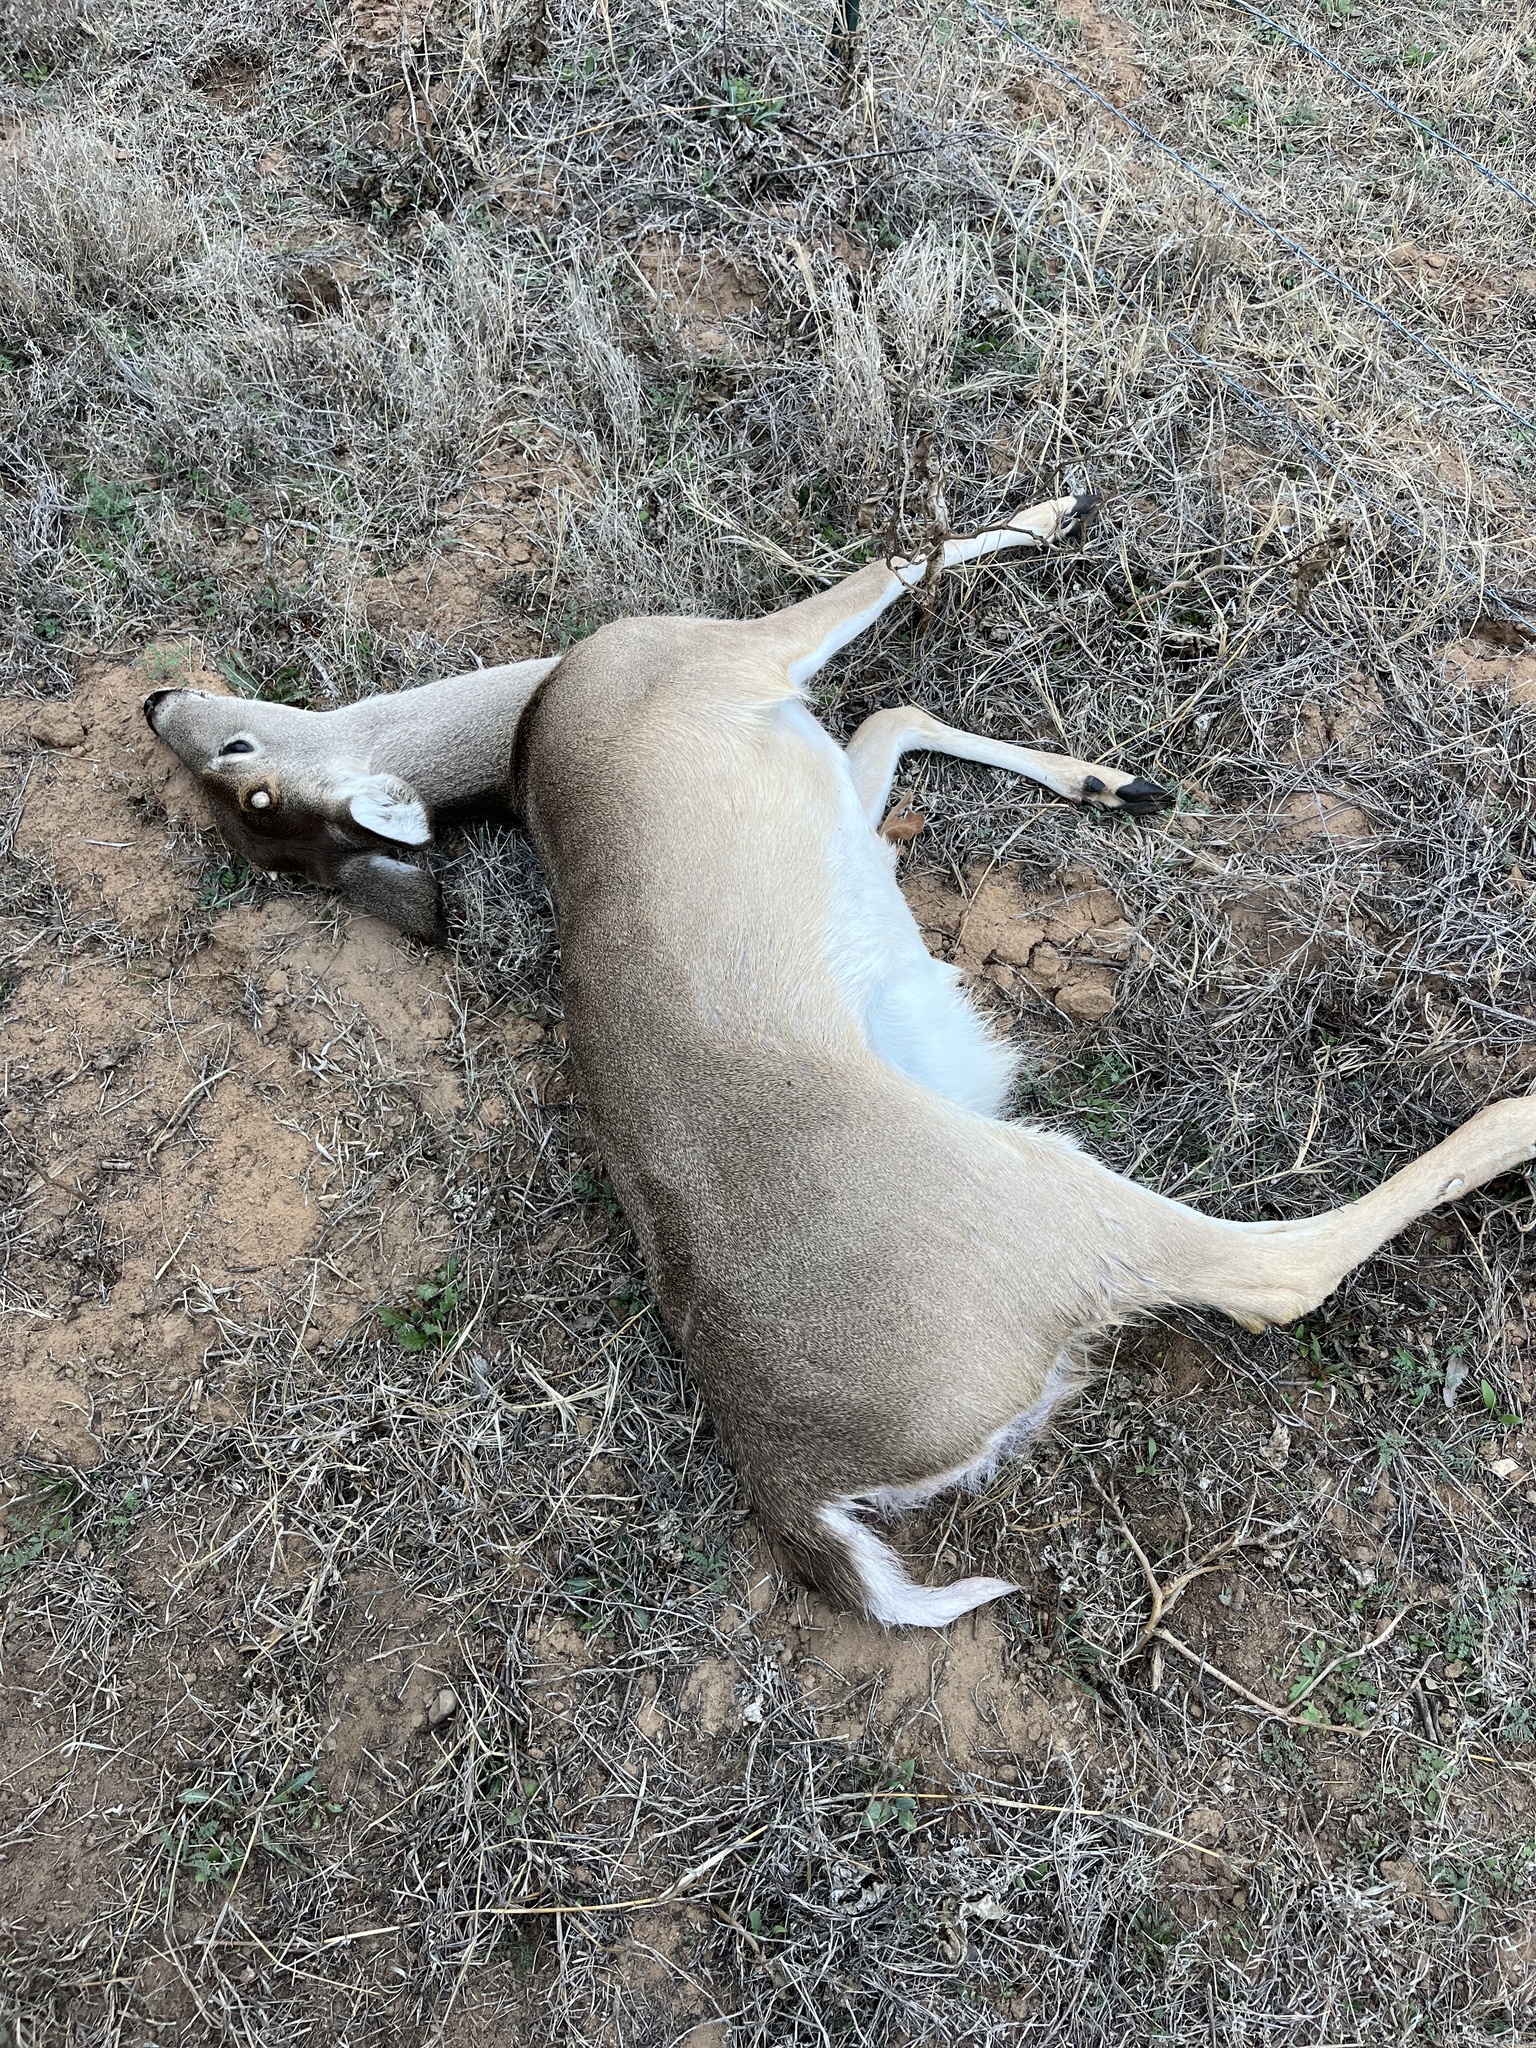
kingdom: Animalia
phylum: Chordata
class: Mammalia
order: Artiodactyla
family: Cervidae
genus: Odocoileus
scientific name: Odocoileus virginianus
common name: White-tailed deer
